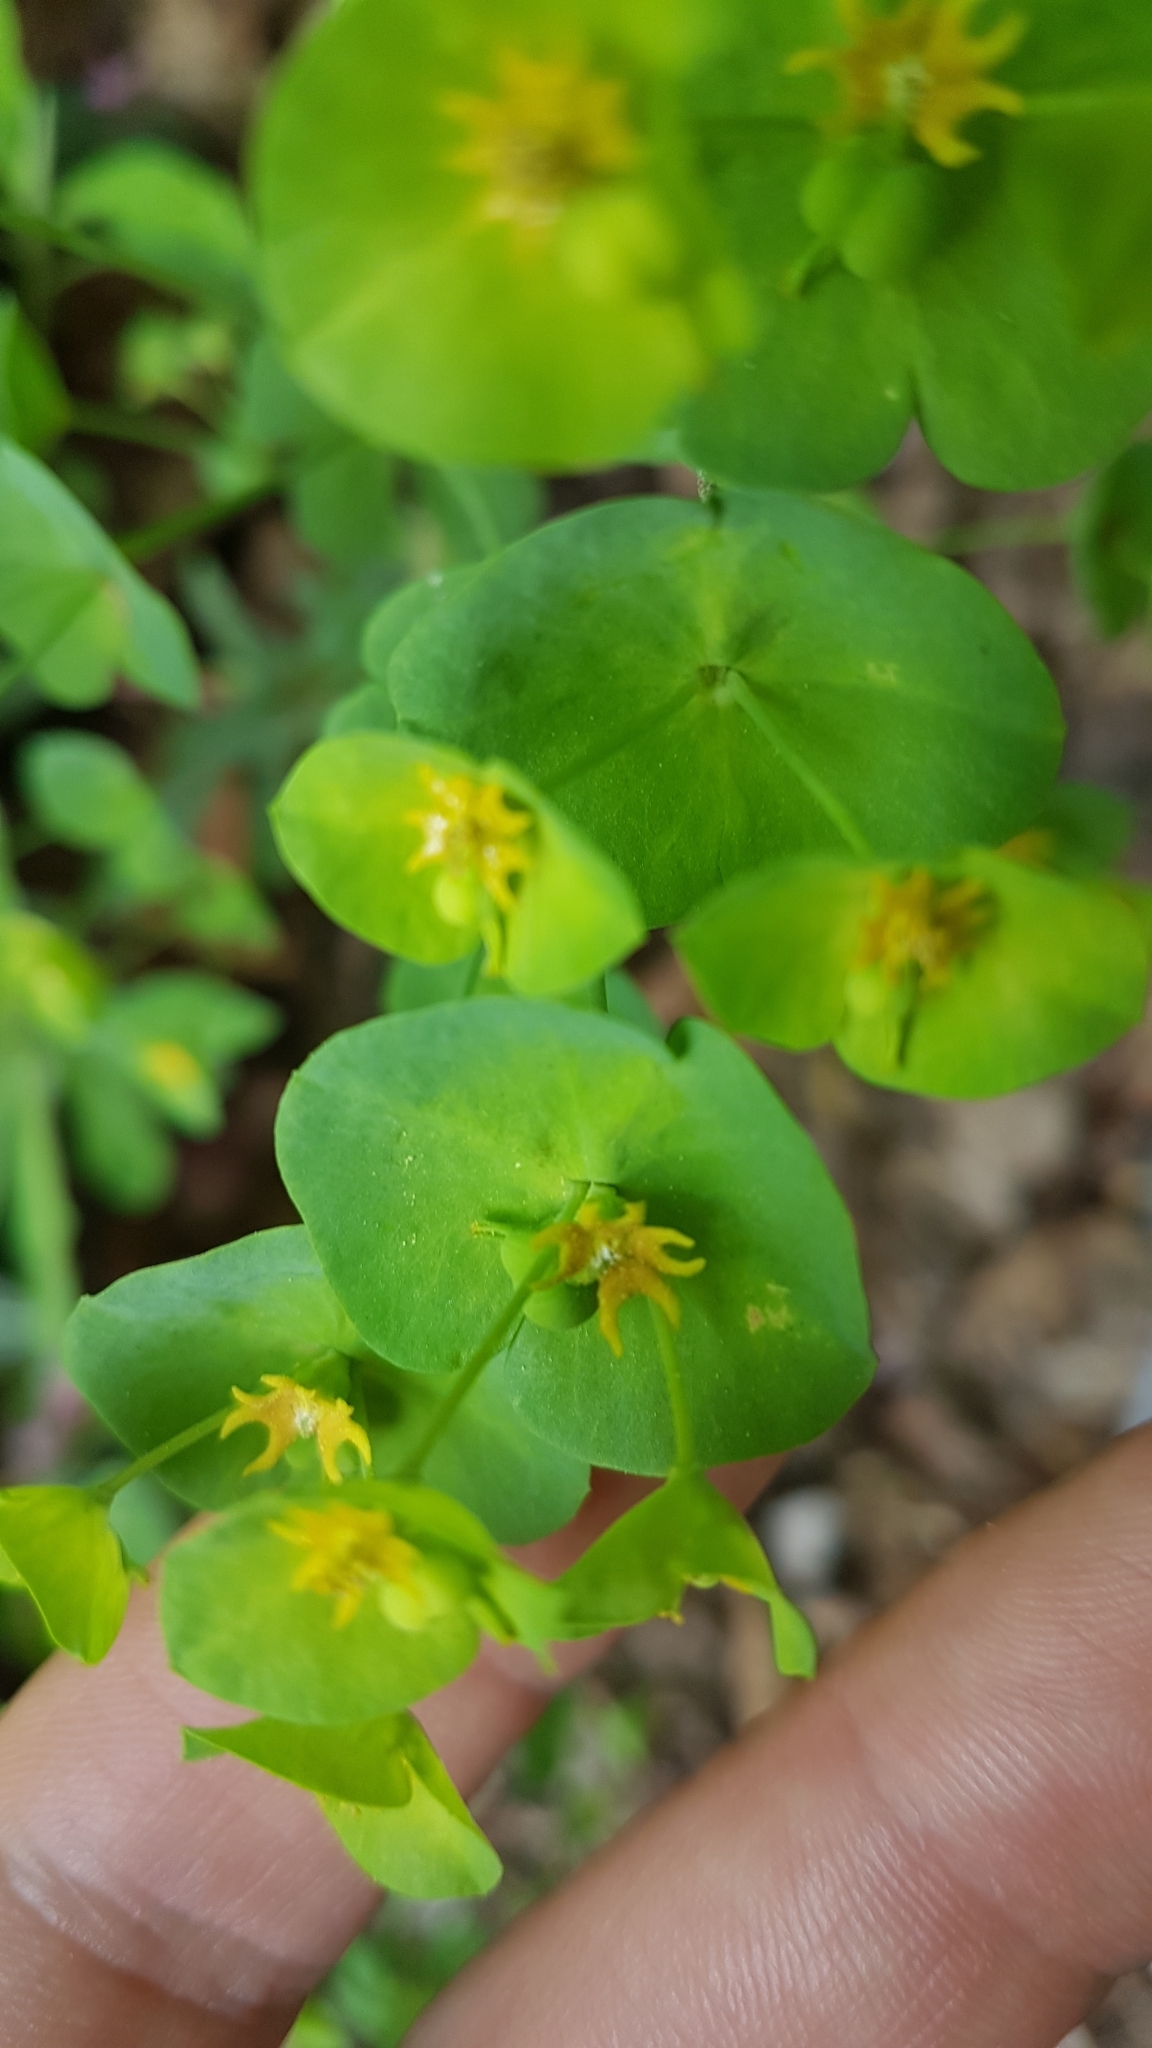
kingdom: Plantae
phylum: Tracheophyta
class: Magnoliopsida
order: Malpighiales
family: Euphorbiaceae
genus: Euphorbia
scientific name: Euphorbia amygdaloides
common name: Wood spurge
